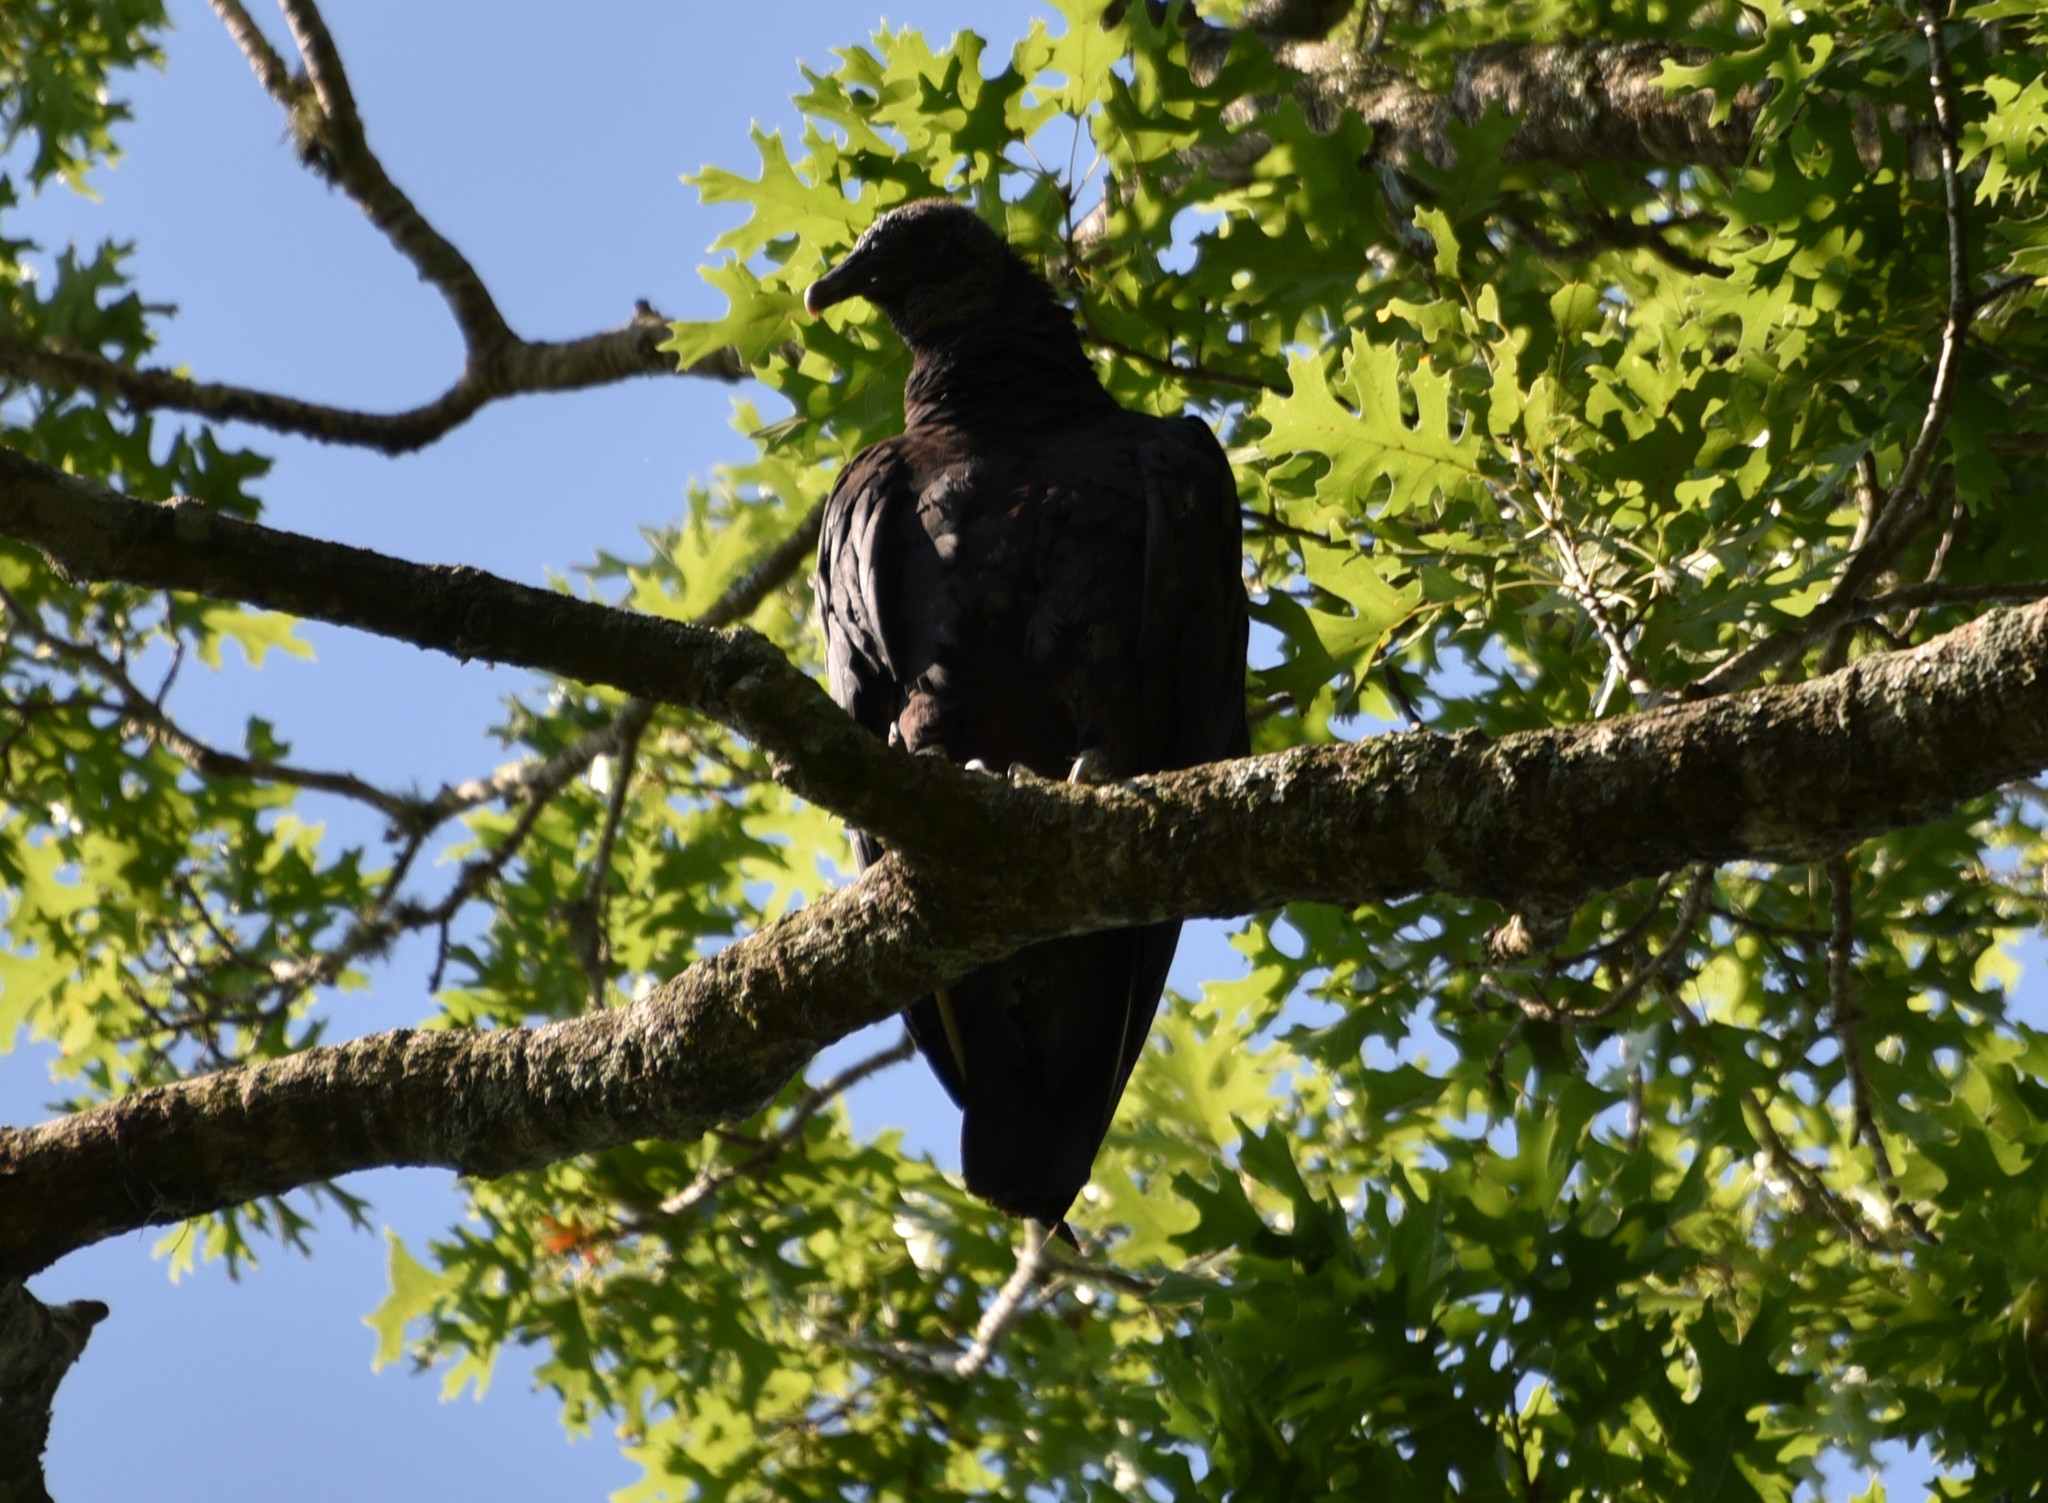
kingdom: Animalia
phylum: Chordata
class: Aves
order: Accipitriformes
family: Cathartidae
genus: Coragyps
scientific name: Coragyps atratus
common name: Black vulture
